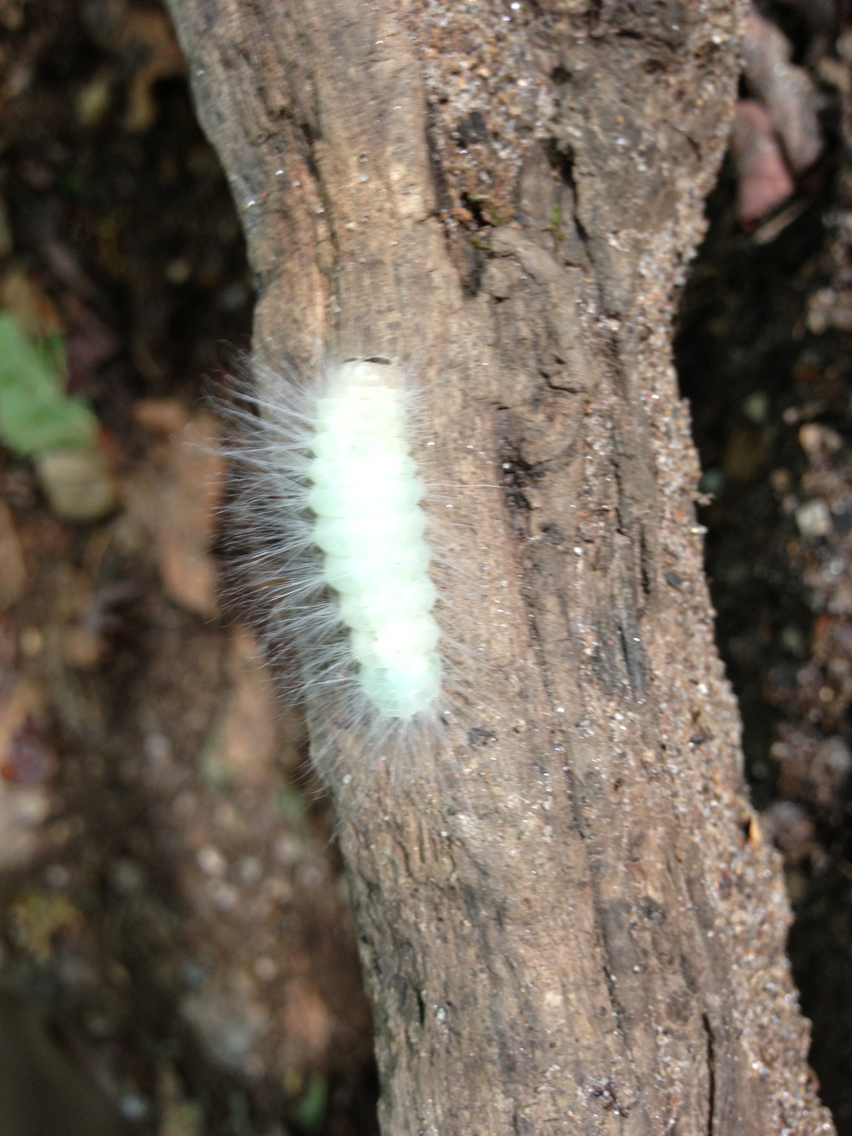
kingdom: Animalia
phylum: Arthropoda
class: Insecta
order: Lepidoptera
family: Noctuidae
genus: Charadra
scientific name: Charadra deridens
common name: Marbled tuffet
